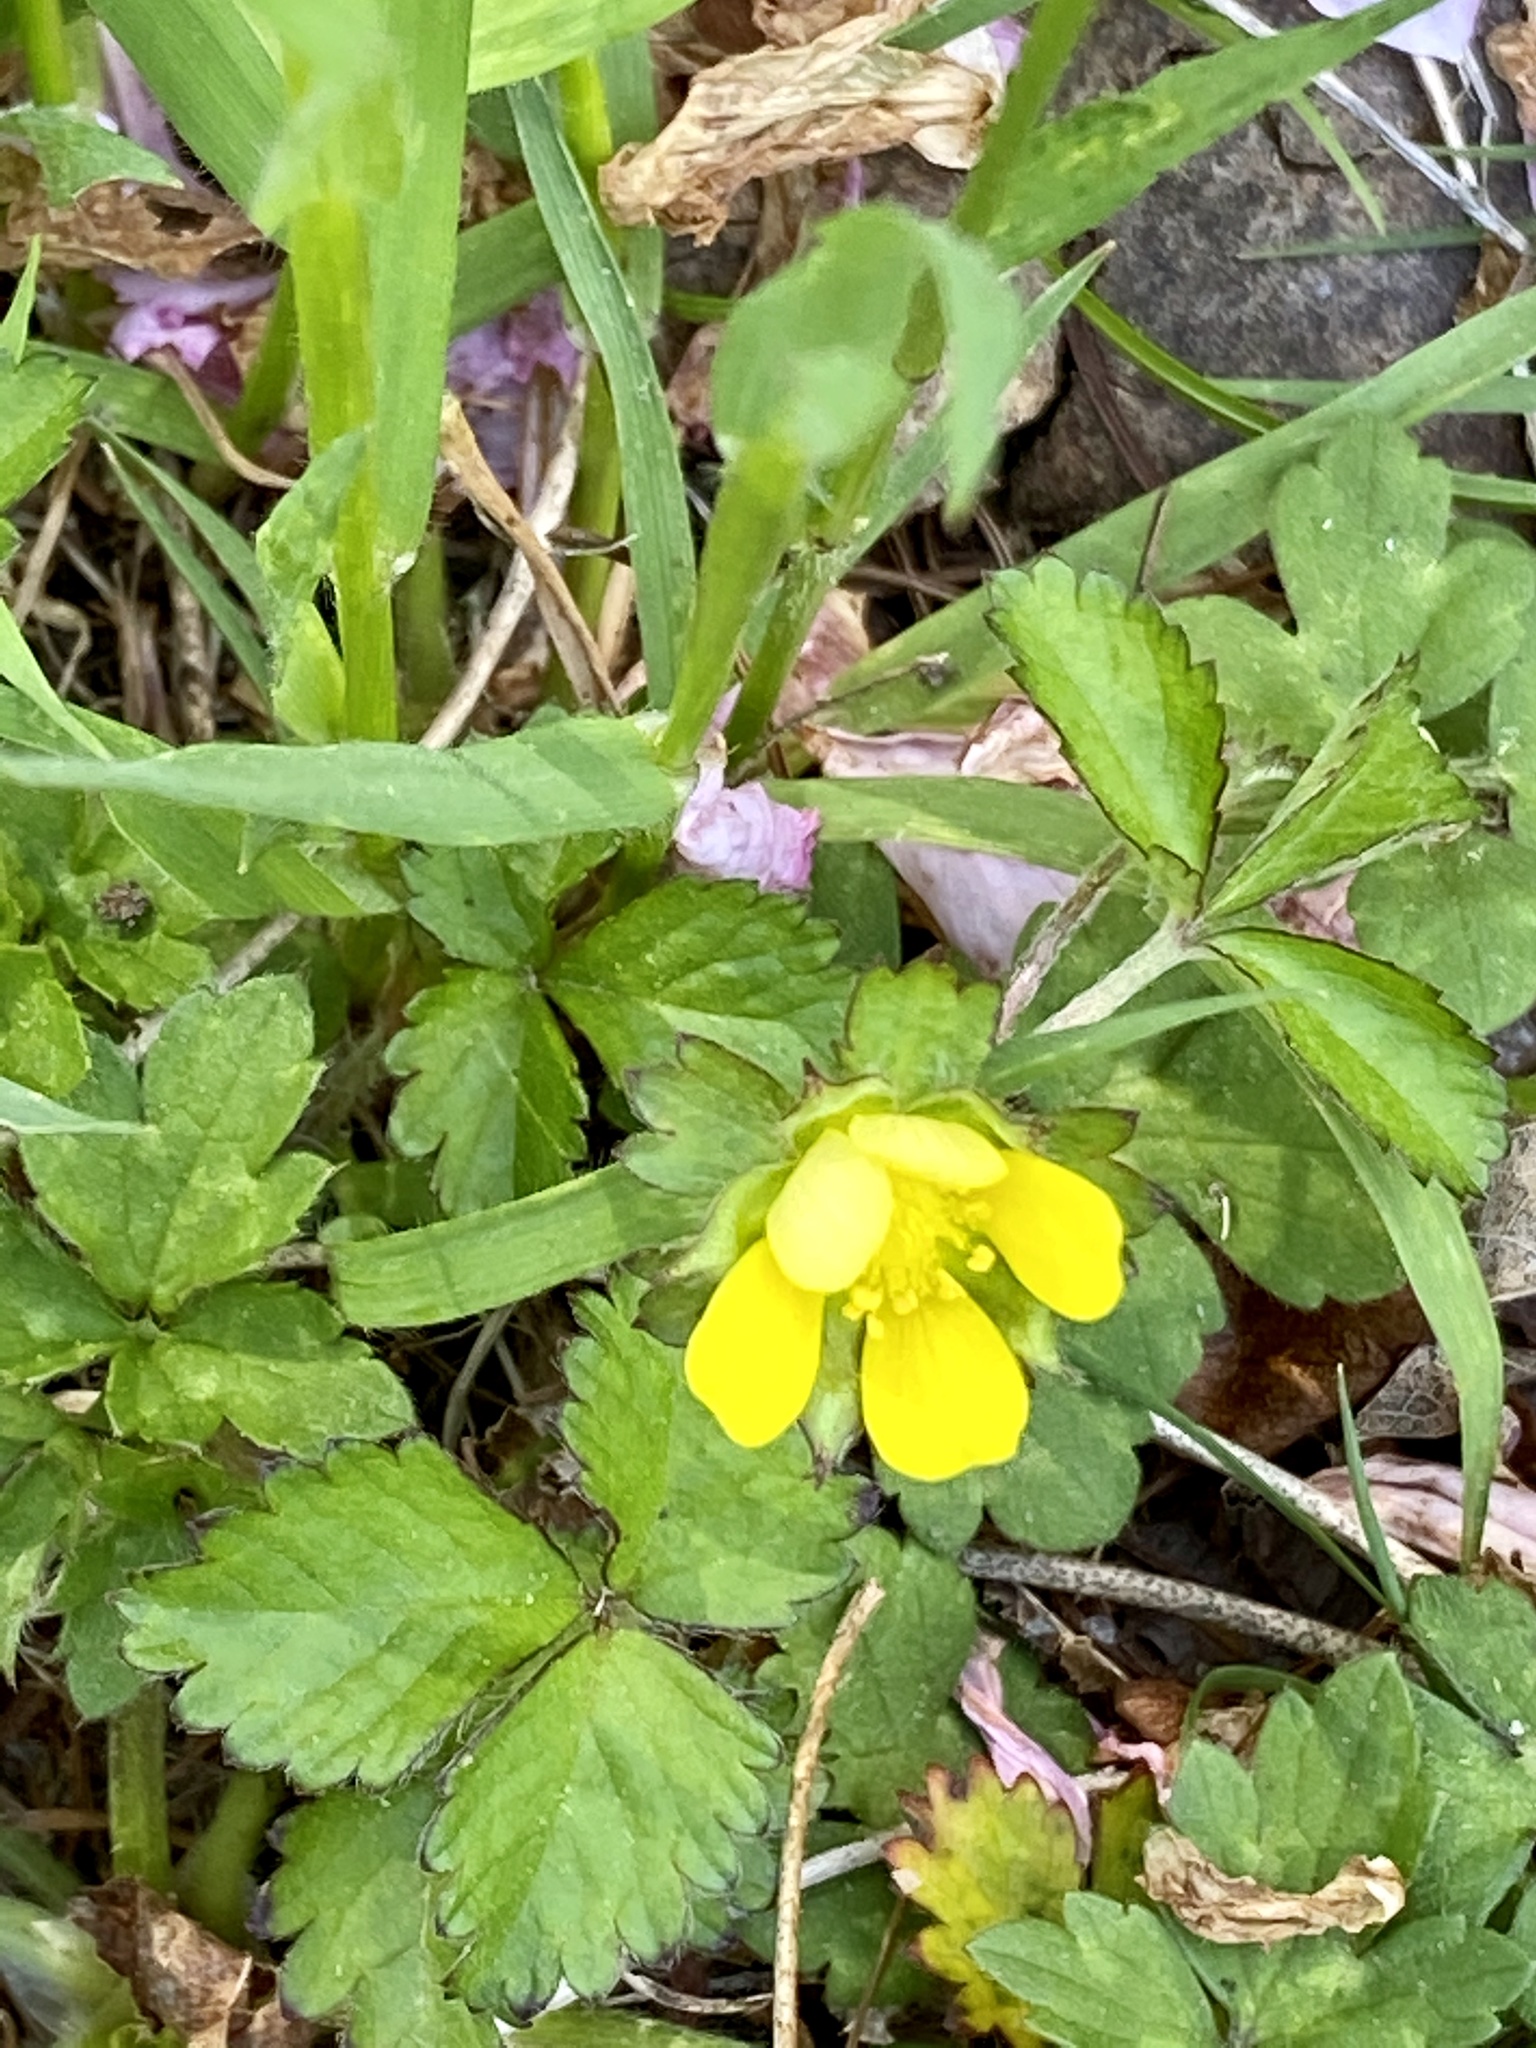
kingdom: Plantae
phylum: Tracheophyta
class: Magnoliopsida
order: Rosales
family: Rosaceae
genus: Potentilla
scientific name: Potentilla indica
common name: Yellow-flowered strawberry
